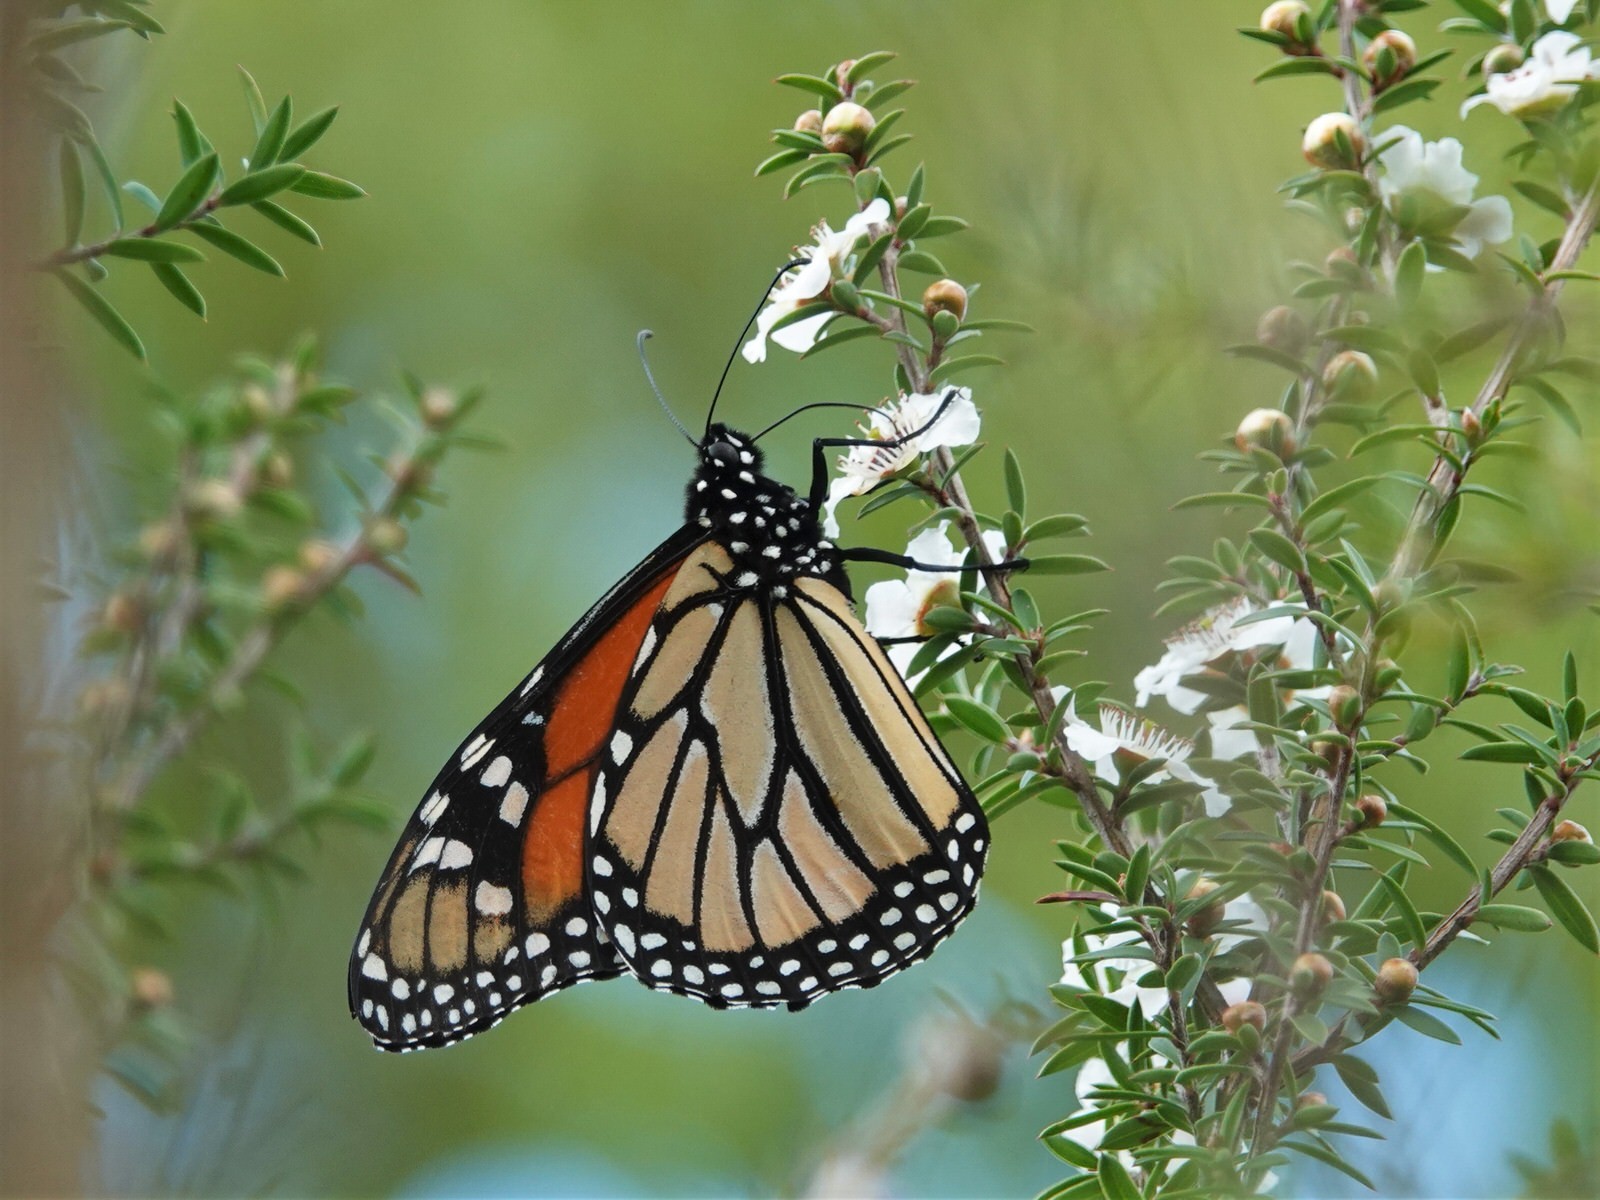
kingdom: Animalia
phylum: Arthropoda
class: Insecta
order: Lepidoptera
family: Nymphalidae
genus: Danaus
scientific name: Danaus plexippus
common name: Monarch
